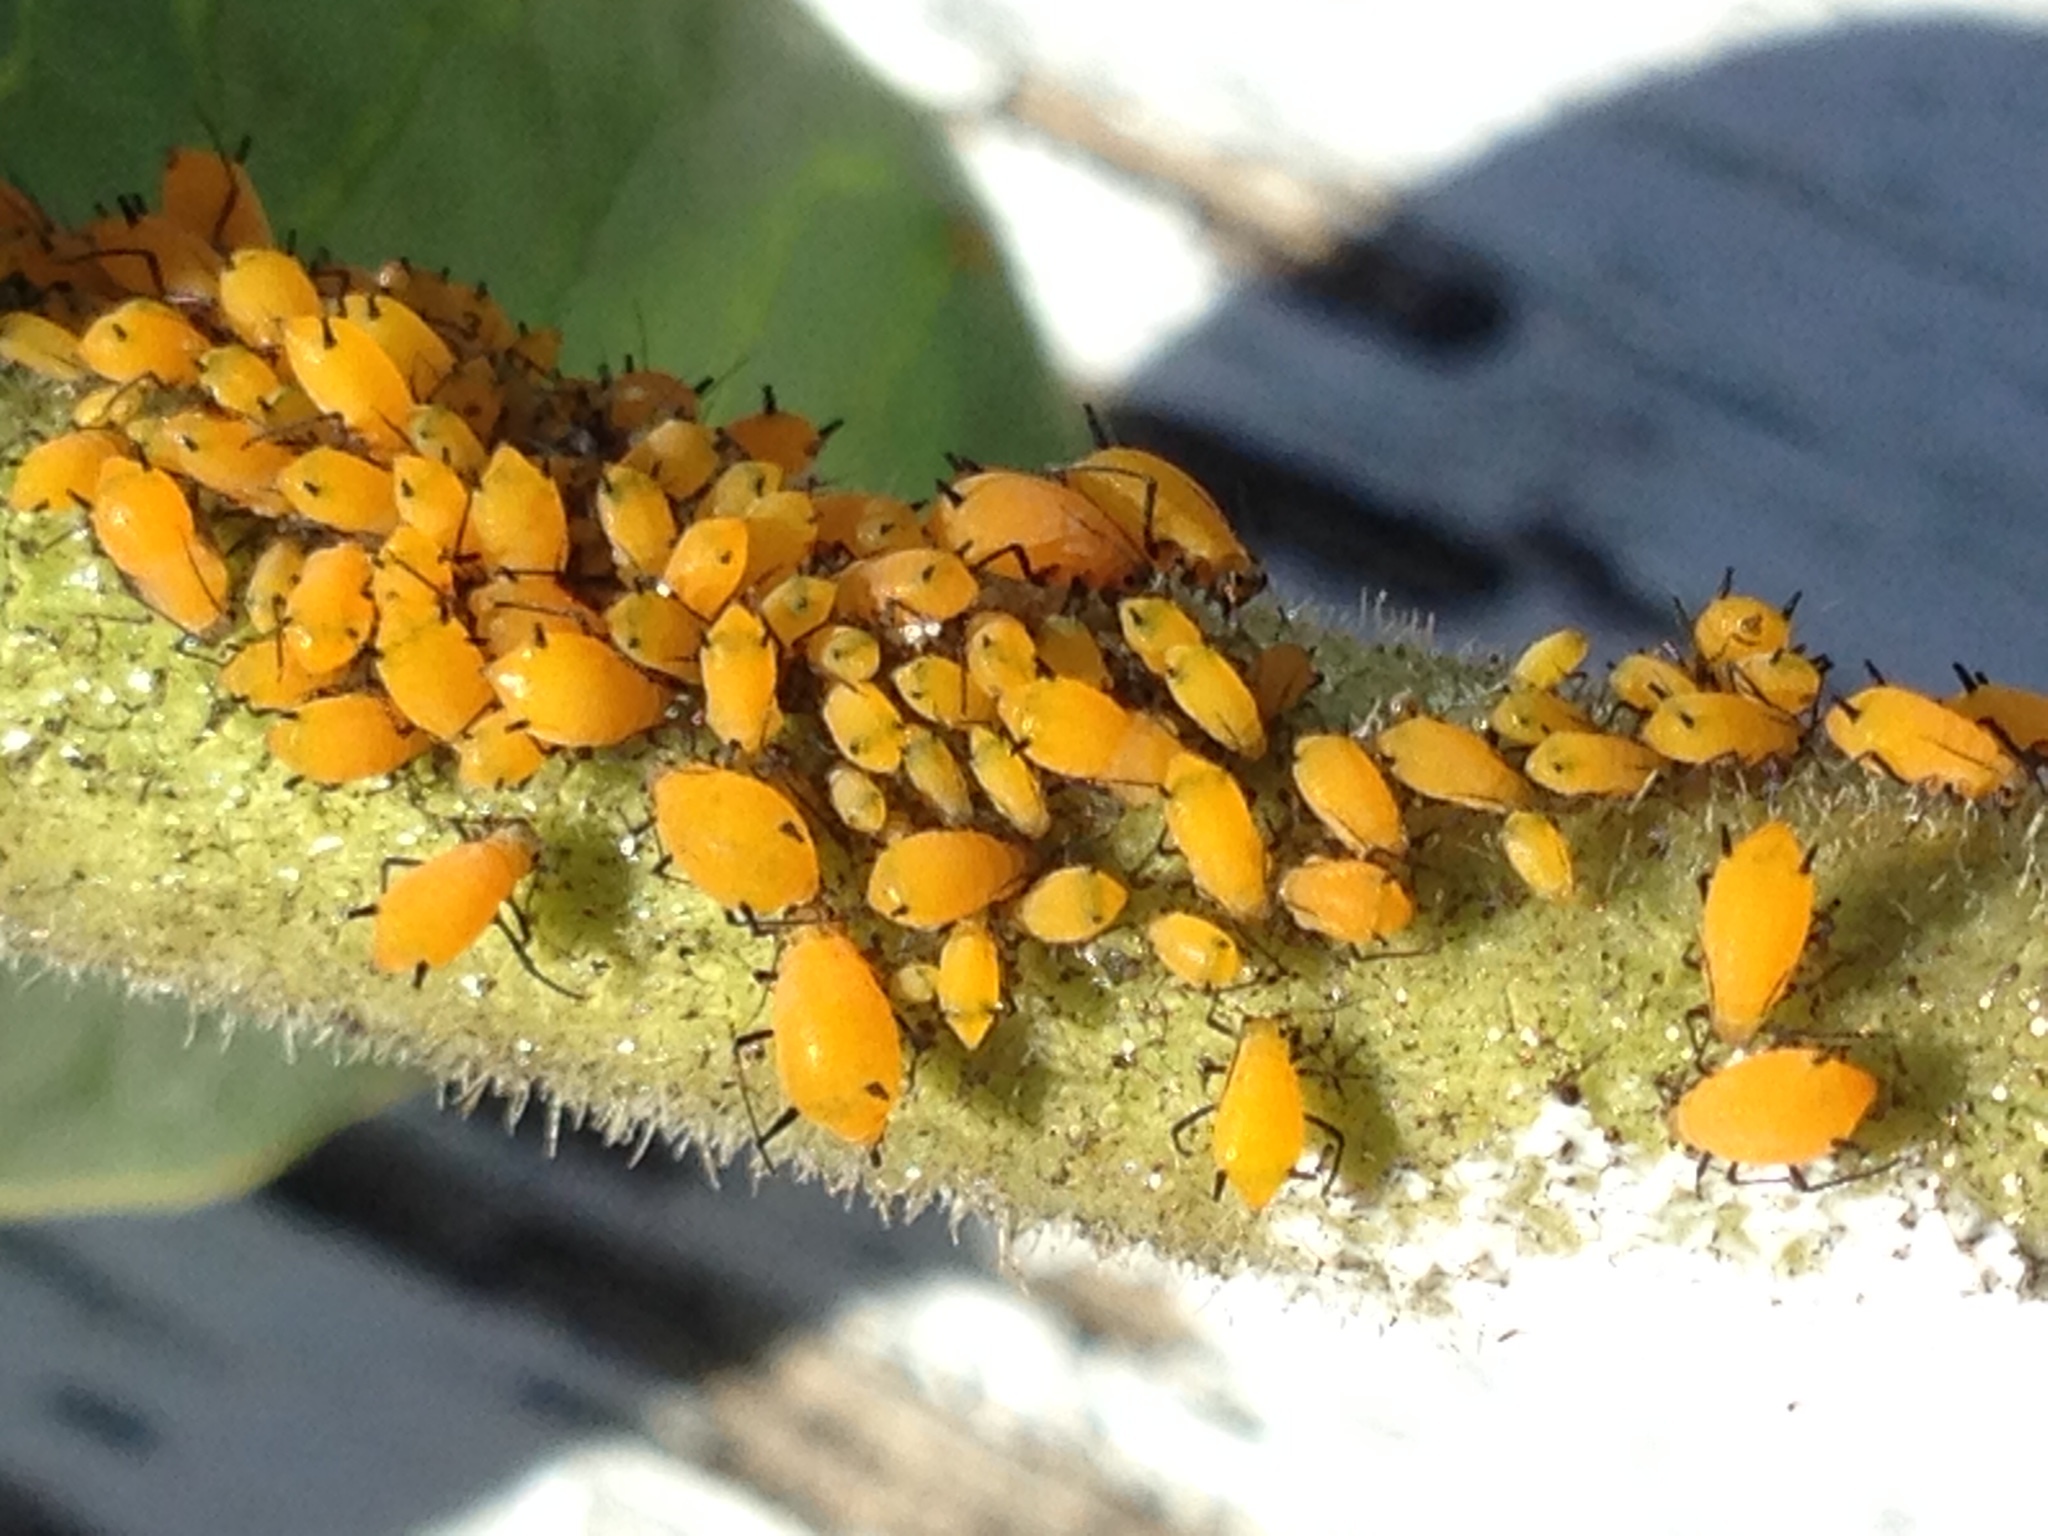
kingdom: Animalia
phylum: Arthropoda
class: Insecta
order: Hemiptera
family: Aphididae
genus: Aphis
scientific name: Aphis nerii
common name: Oleander aphid
